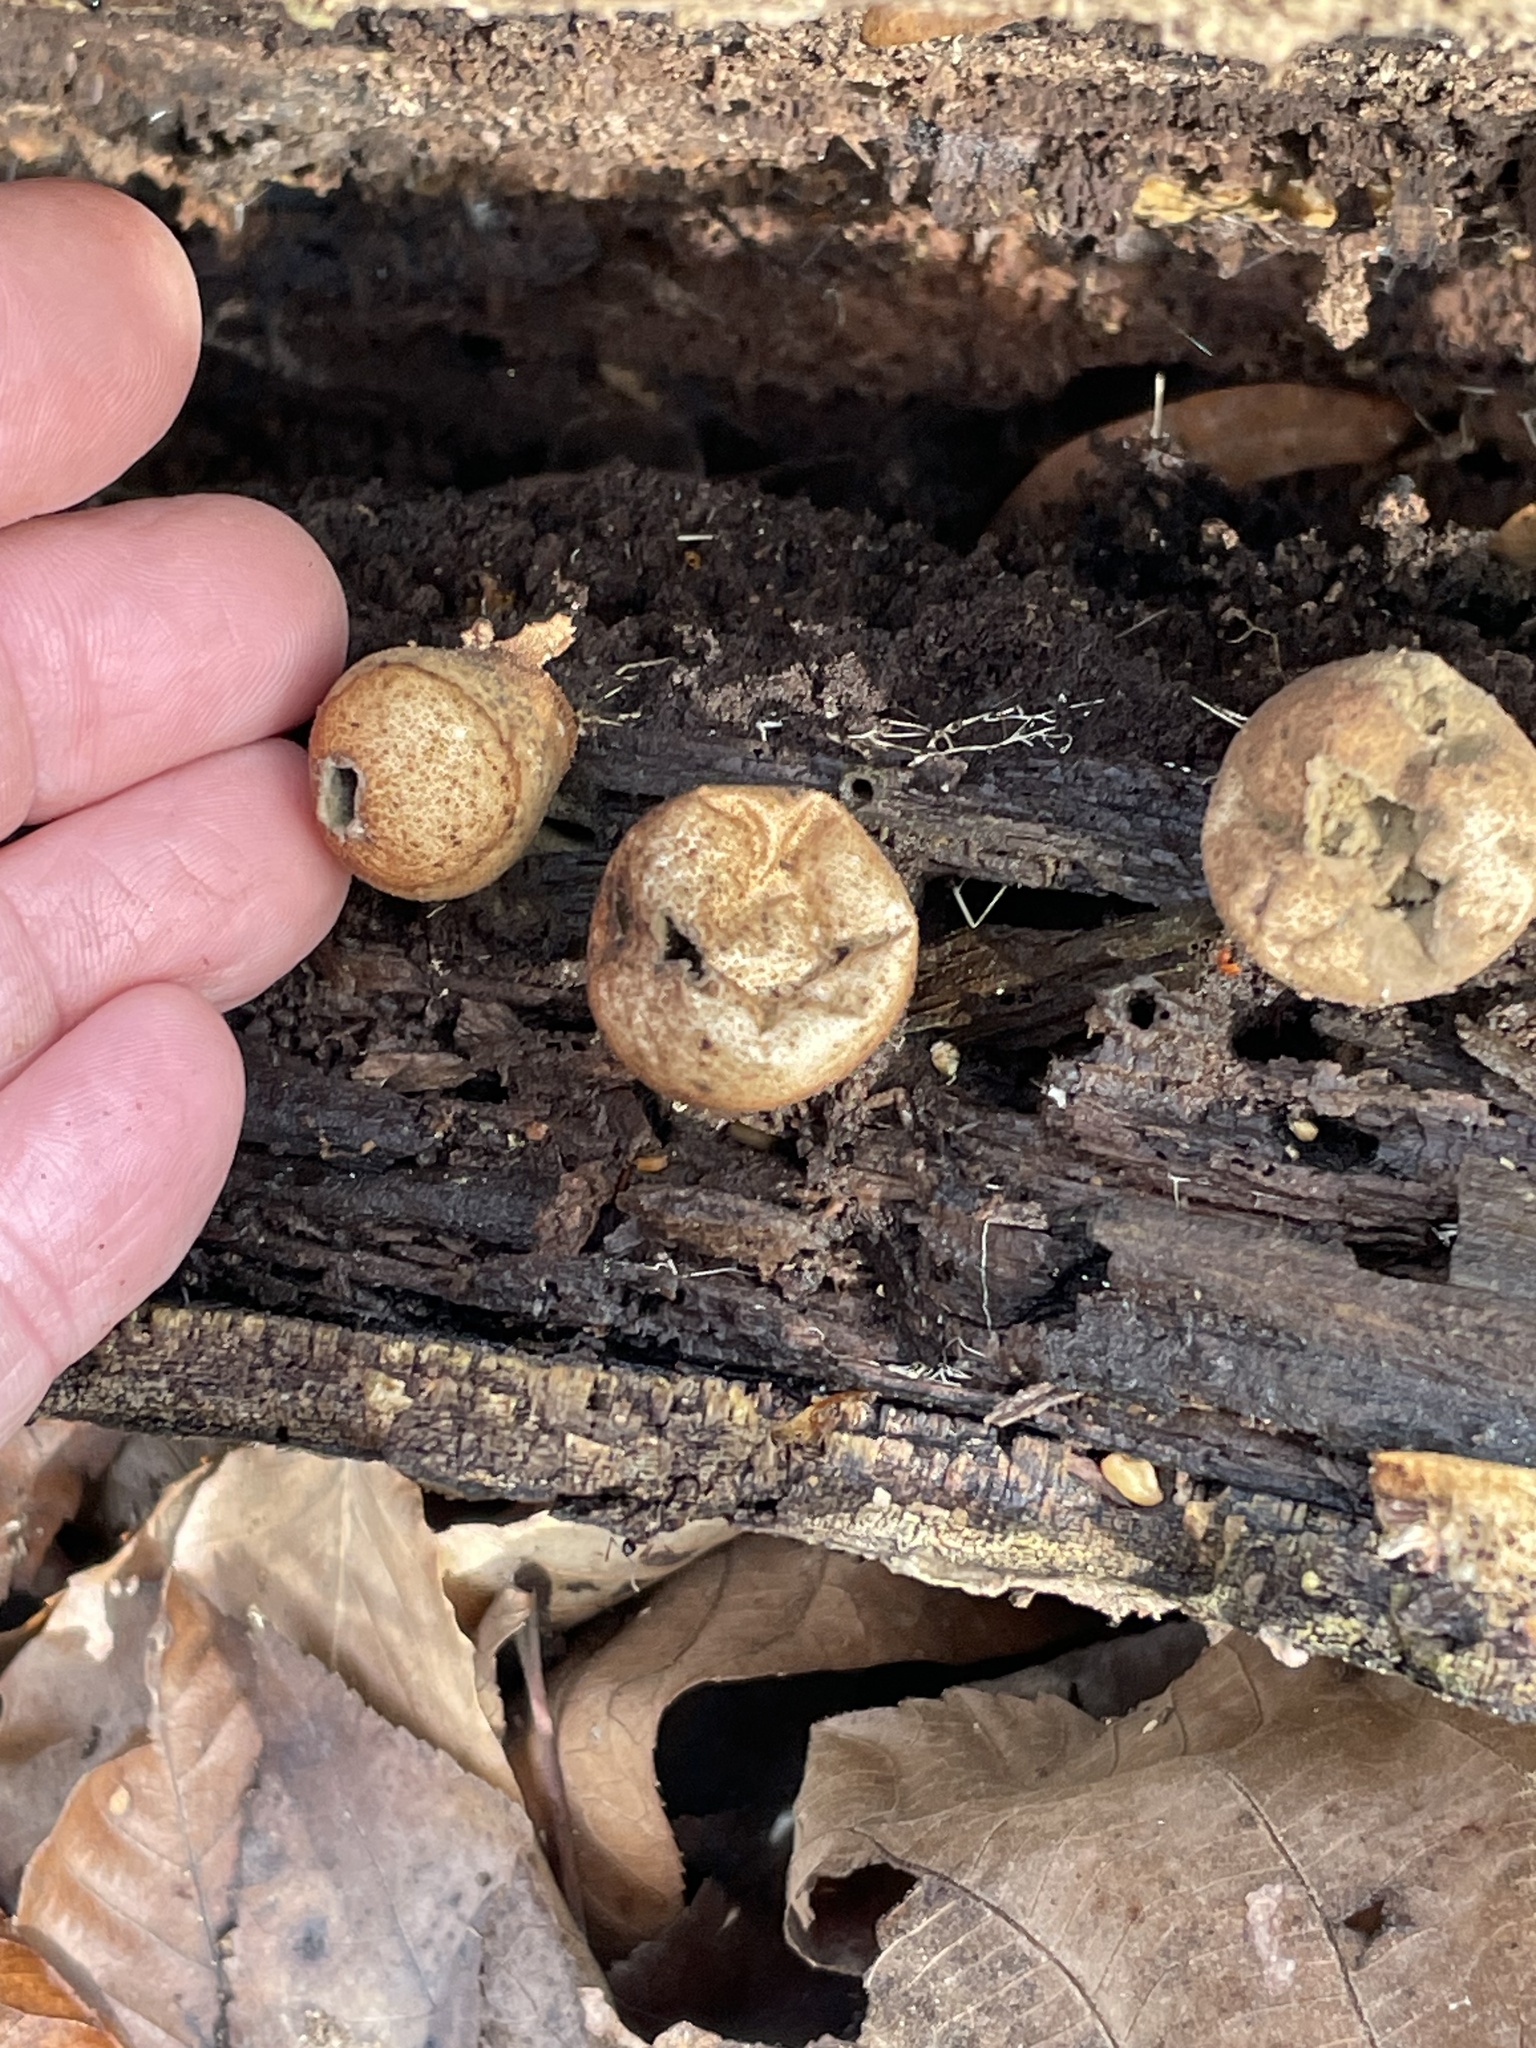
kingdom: Fungi
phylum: Basidiomycota
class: Agaricomycetes
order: Agaricales
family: Lycoperdaceae
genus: Apioperdon
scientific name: Apioperdon pyriforme
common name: Pear-shaped puffball
